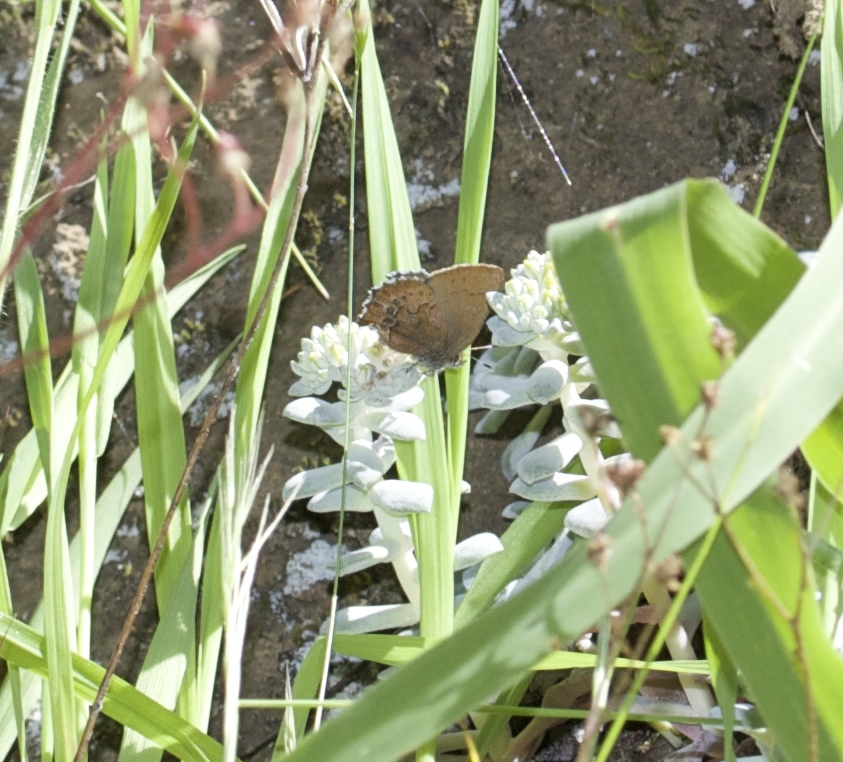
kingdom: Animalia
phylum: Arthropoda
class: Insecta
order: Lepidoptera
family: Lycaenidae
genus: Callophrys
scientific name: Callophrys mossii
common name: Moss' elfin
